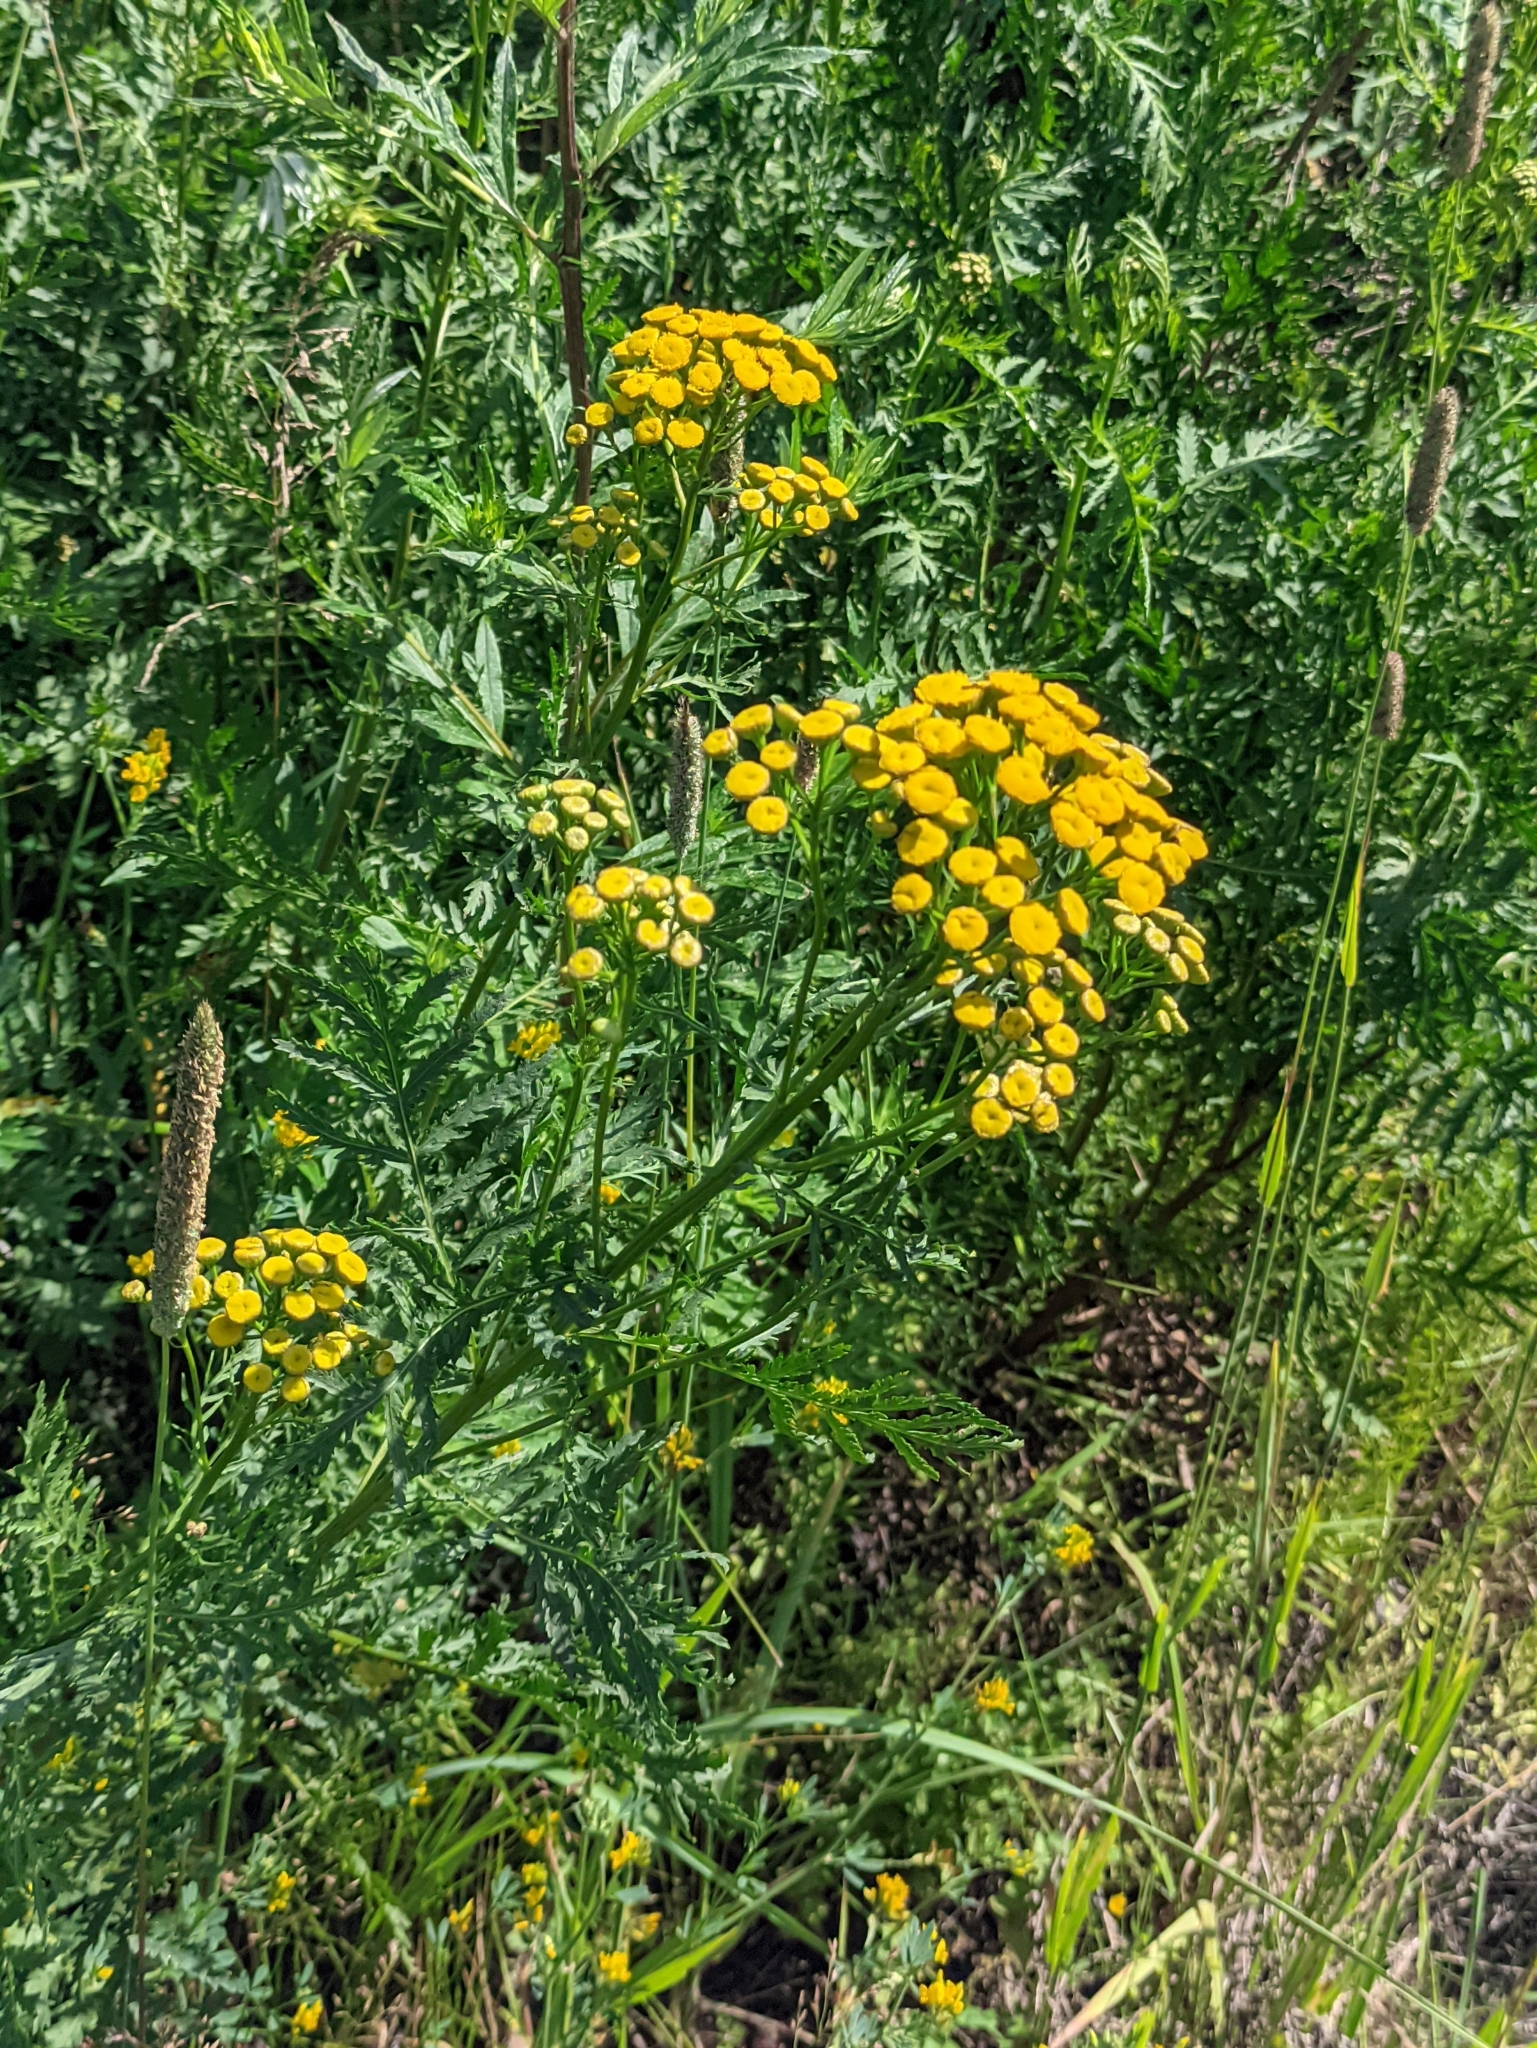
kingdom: Plantae
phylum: Tracheophyta
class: Magnoliopsida
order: Asterales
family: Asteraceae
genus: Tanacetum
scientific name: Tanacetum vulgare
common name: Common tansy
